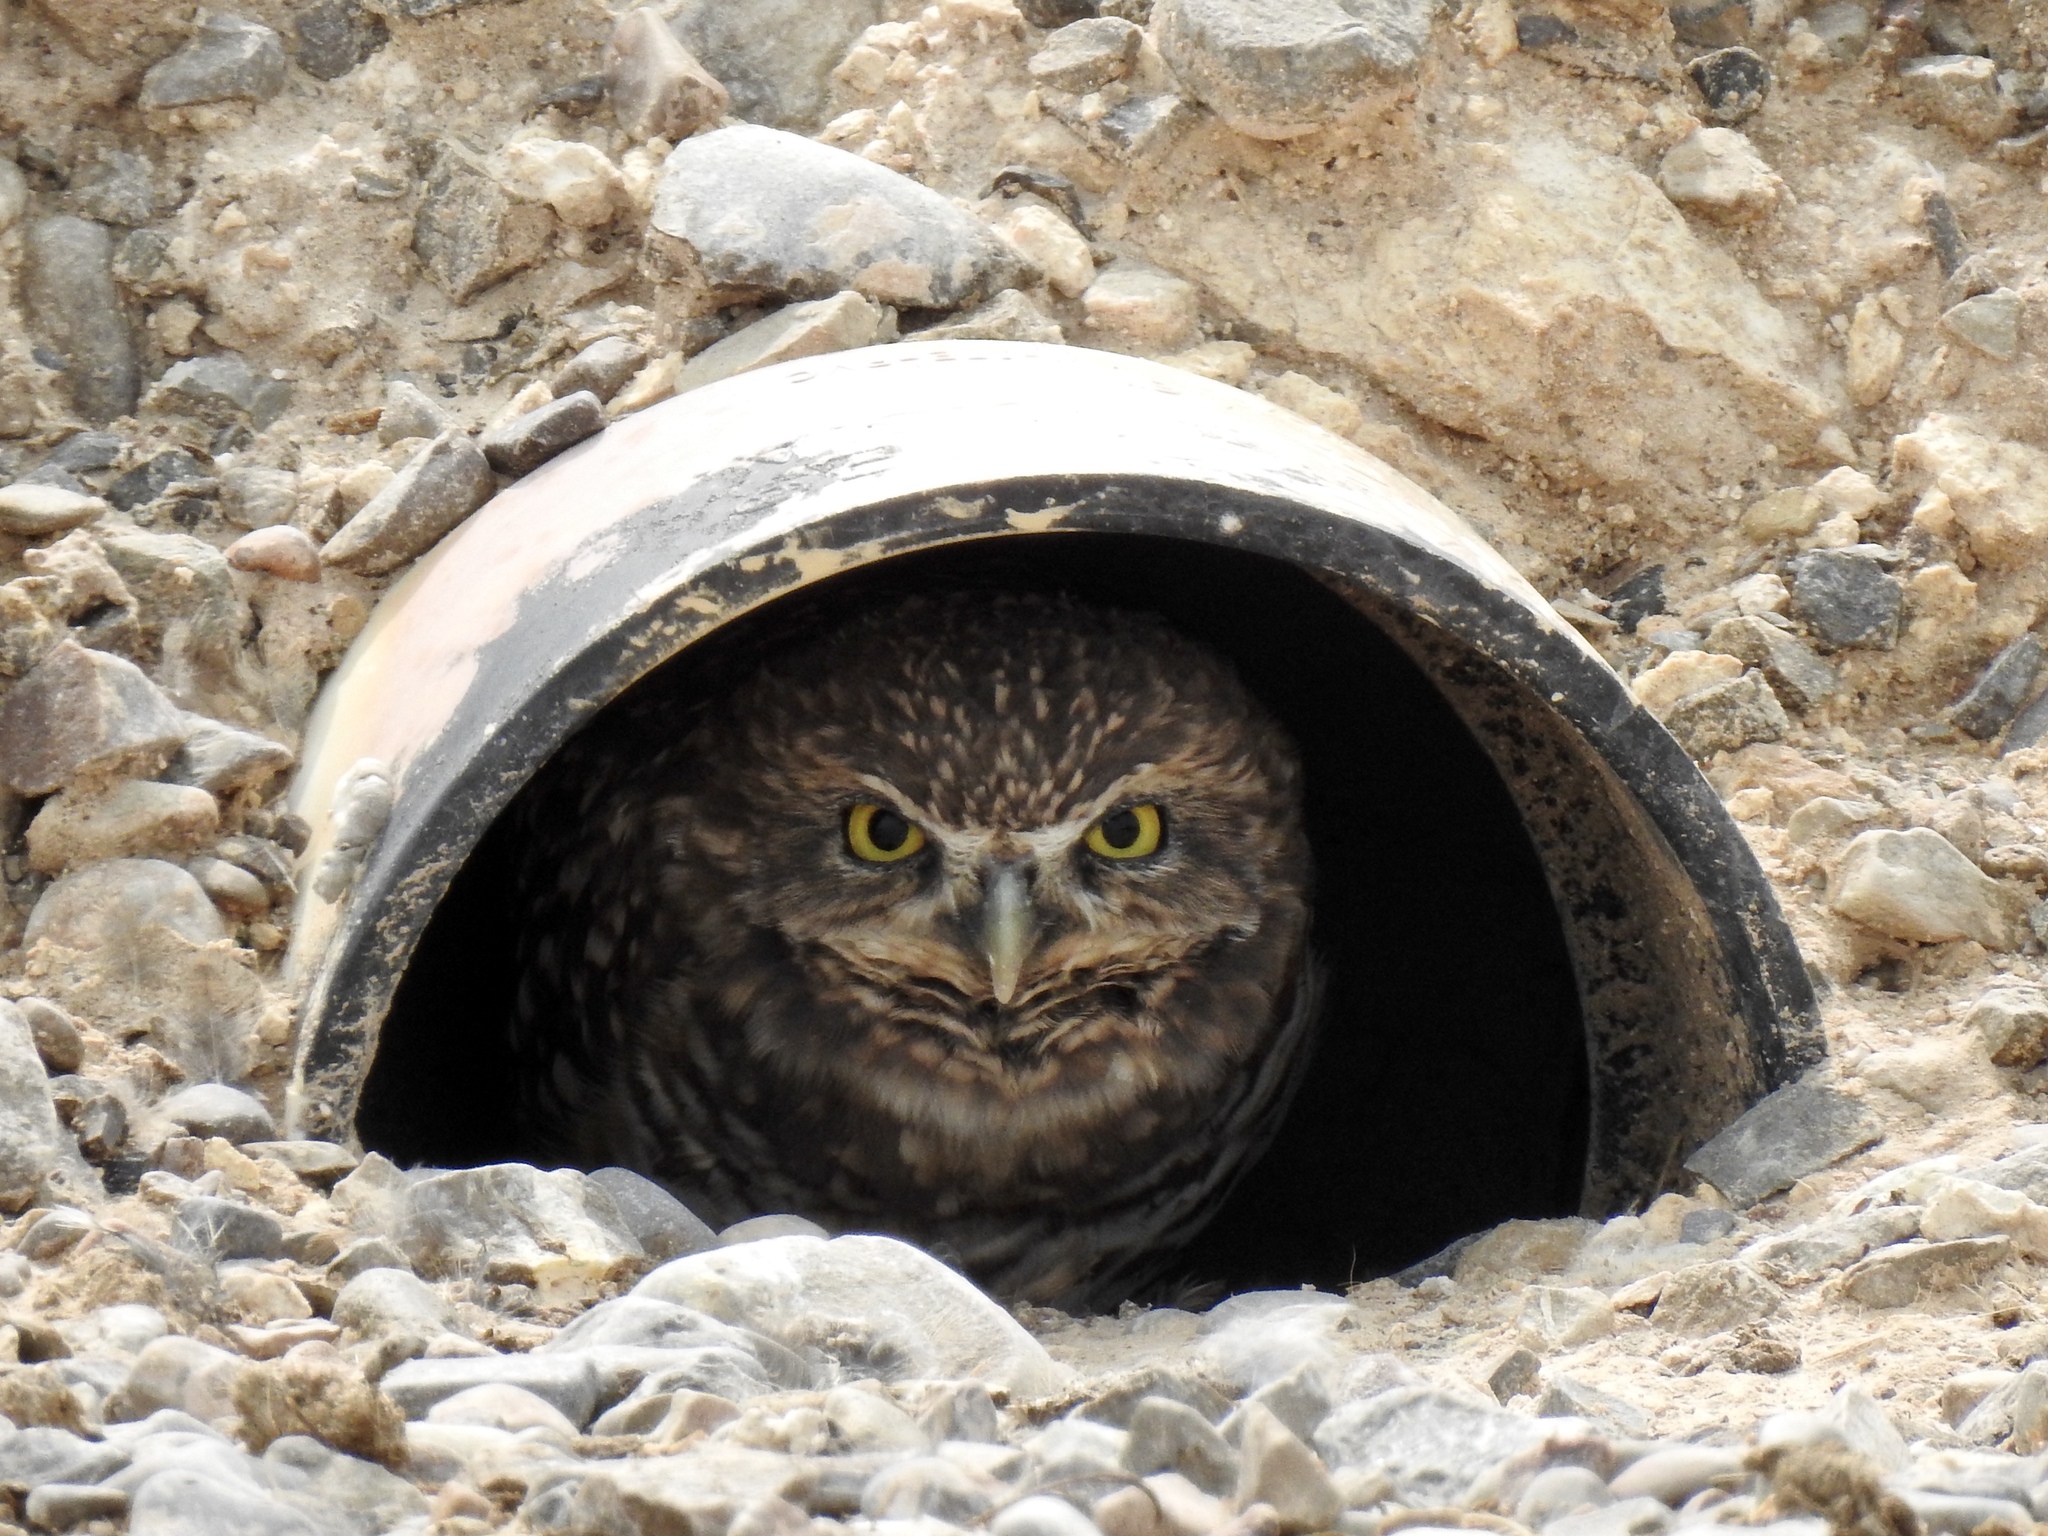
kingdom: Animalia
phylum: Chordata
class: Aves
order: Strigiformes
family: Strigidae
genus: Athene
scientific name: Athene cunicularia
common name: Burrowing owl
